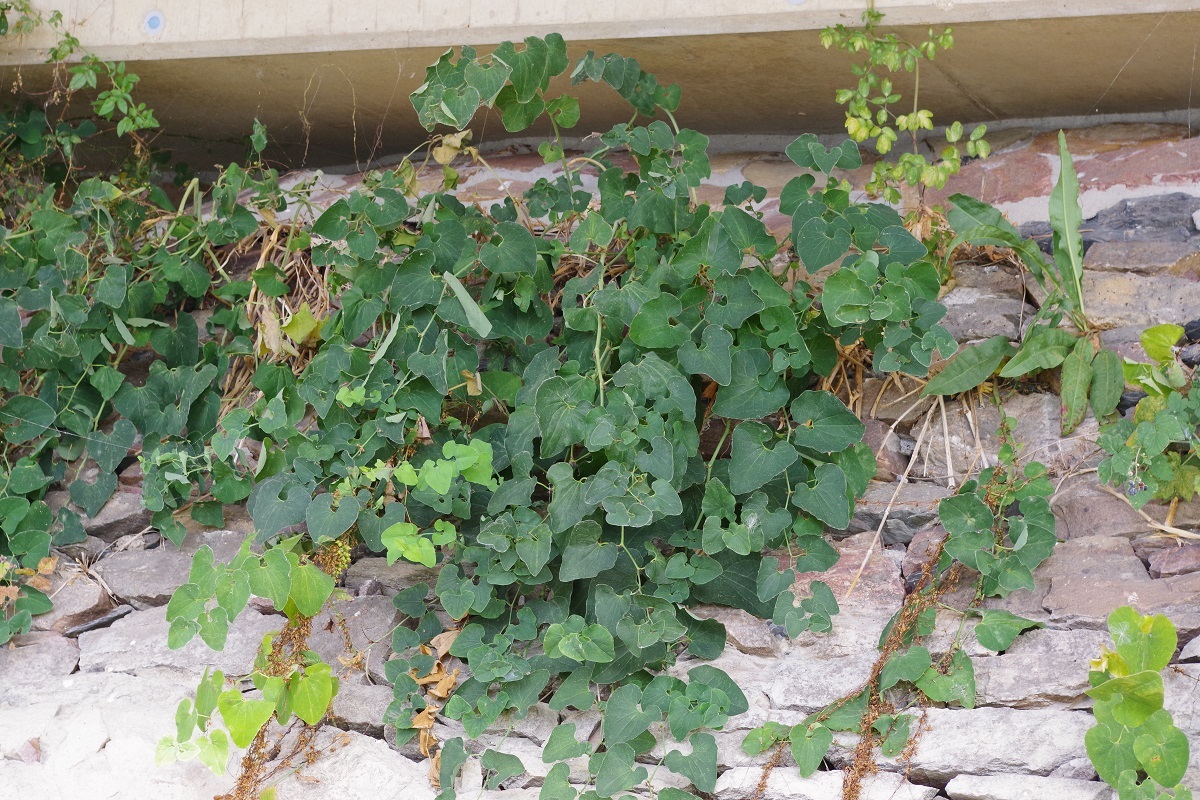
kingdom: Plantae
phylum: Tracheophyta
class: Magnoliopsida
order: Piperales
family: Aristolochiaceae
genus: Aristolochia
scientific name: Aristolochia clematitis
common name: Birthwort
